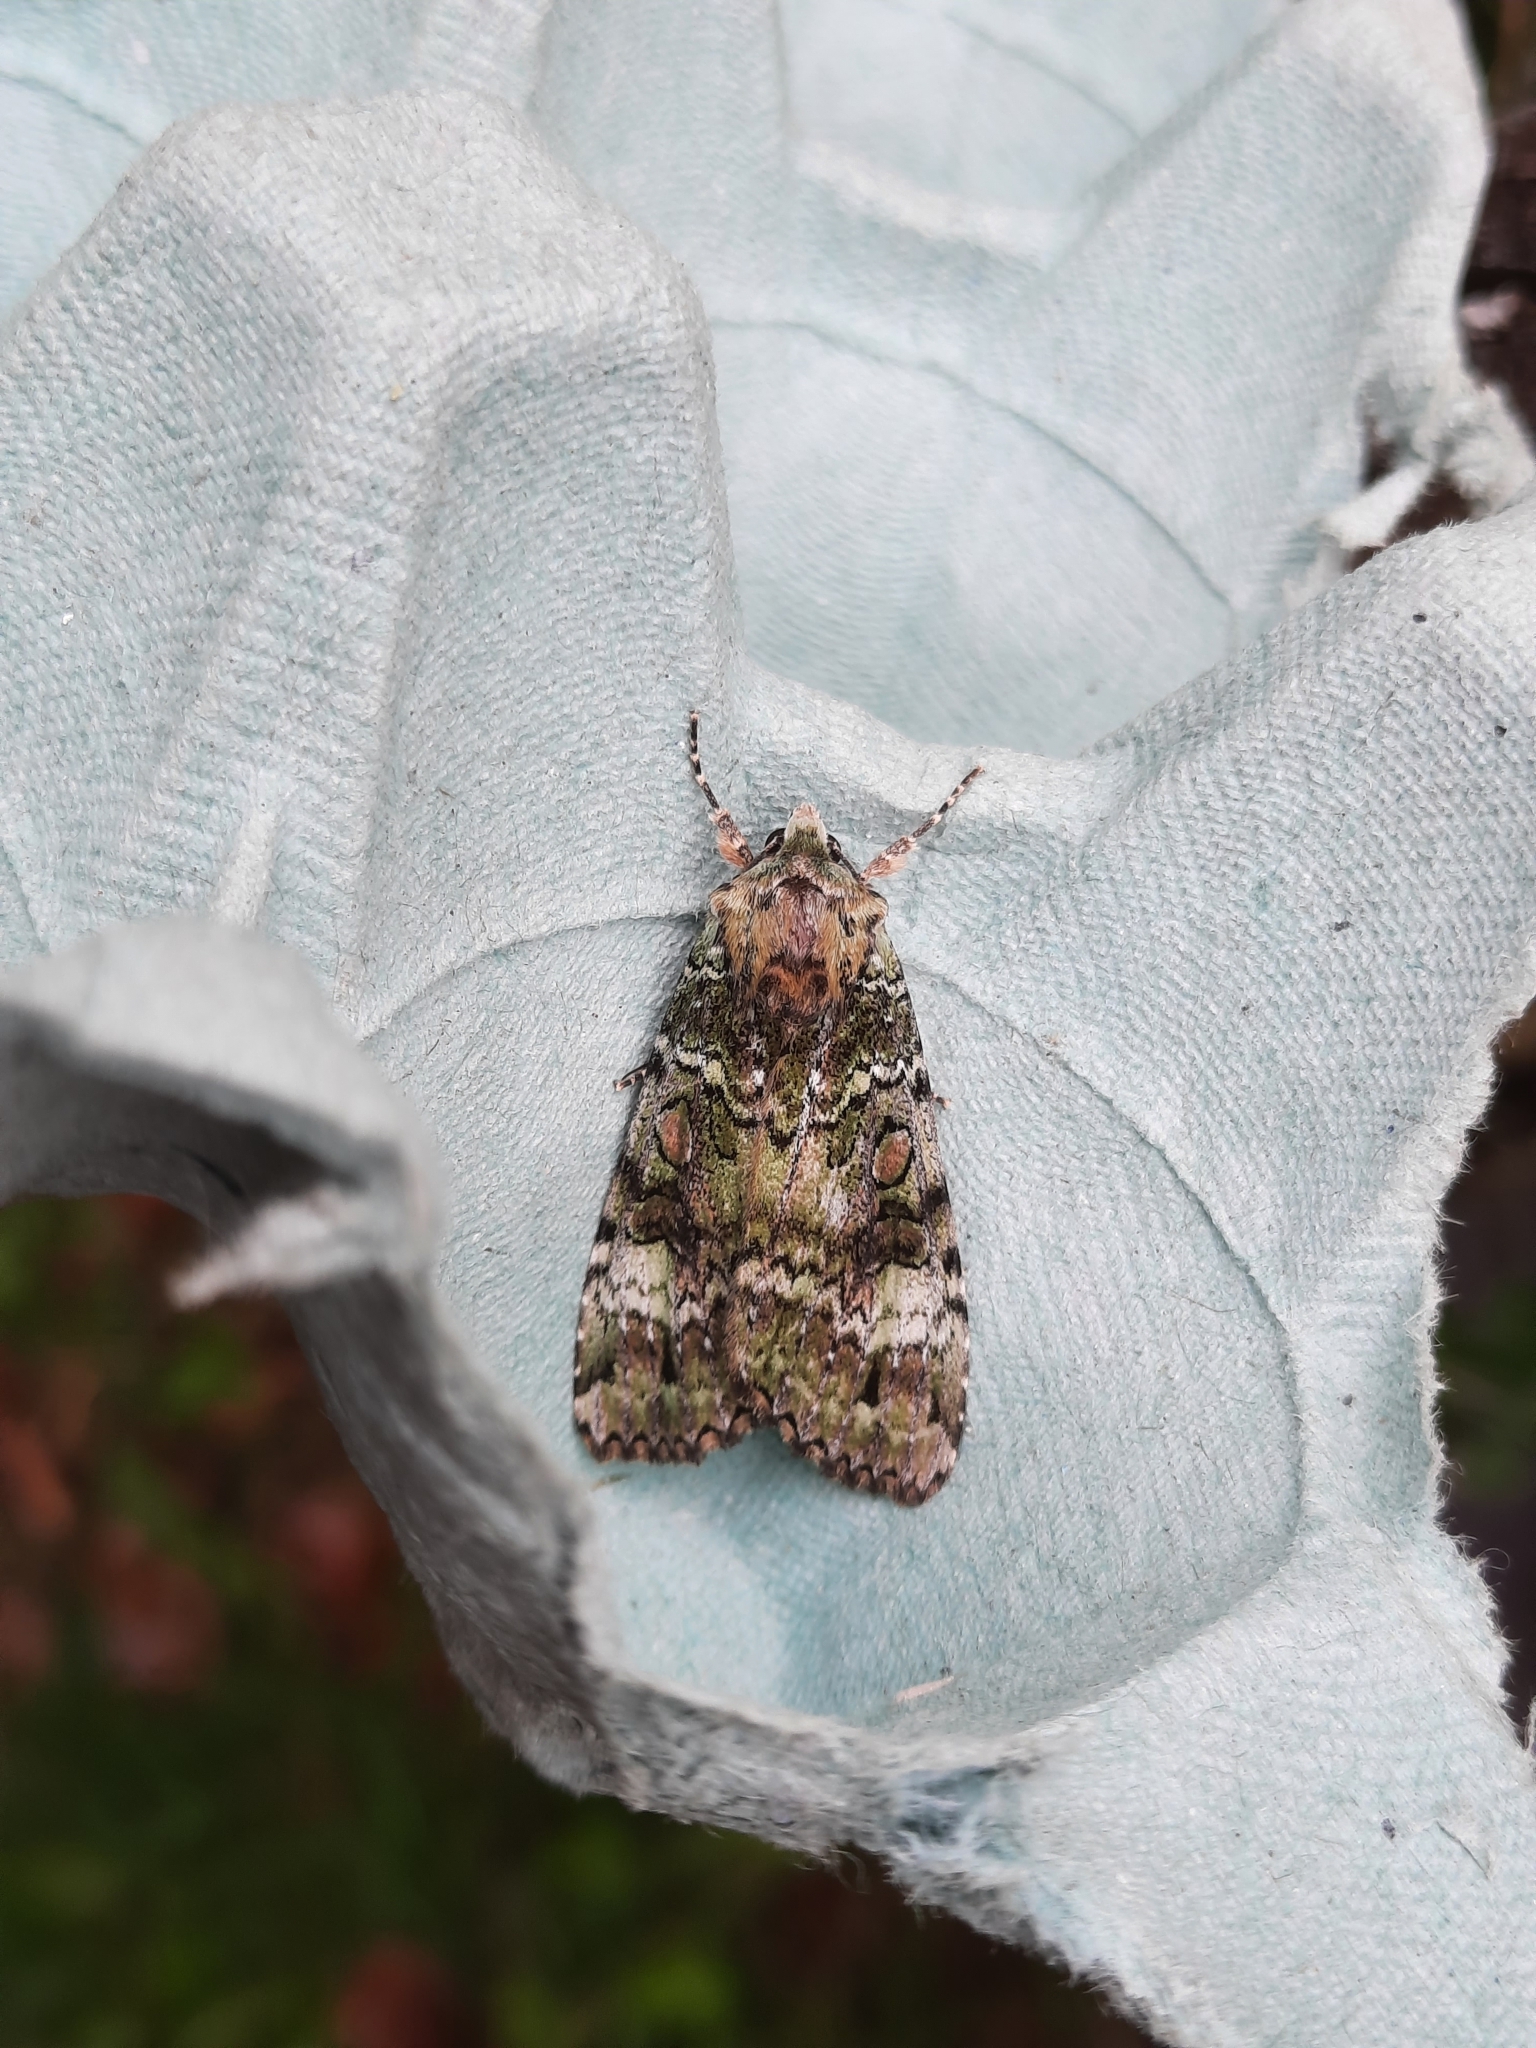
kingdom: Animalia
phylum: Arthropoda
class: Insecta
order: Lepidoptera
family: Noctuidae
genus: Anaplectoides
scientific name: Anaplectoides prasina
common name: Green arches
